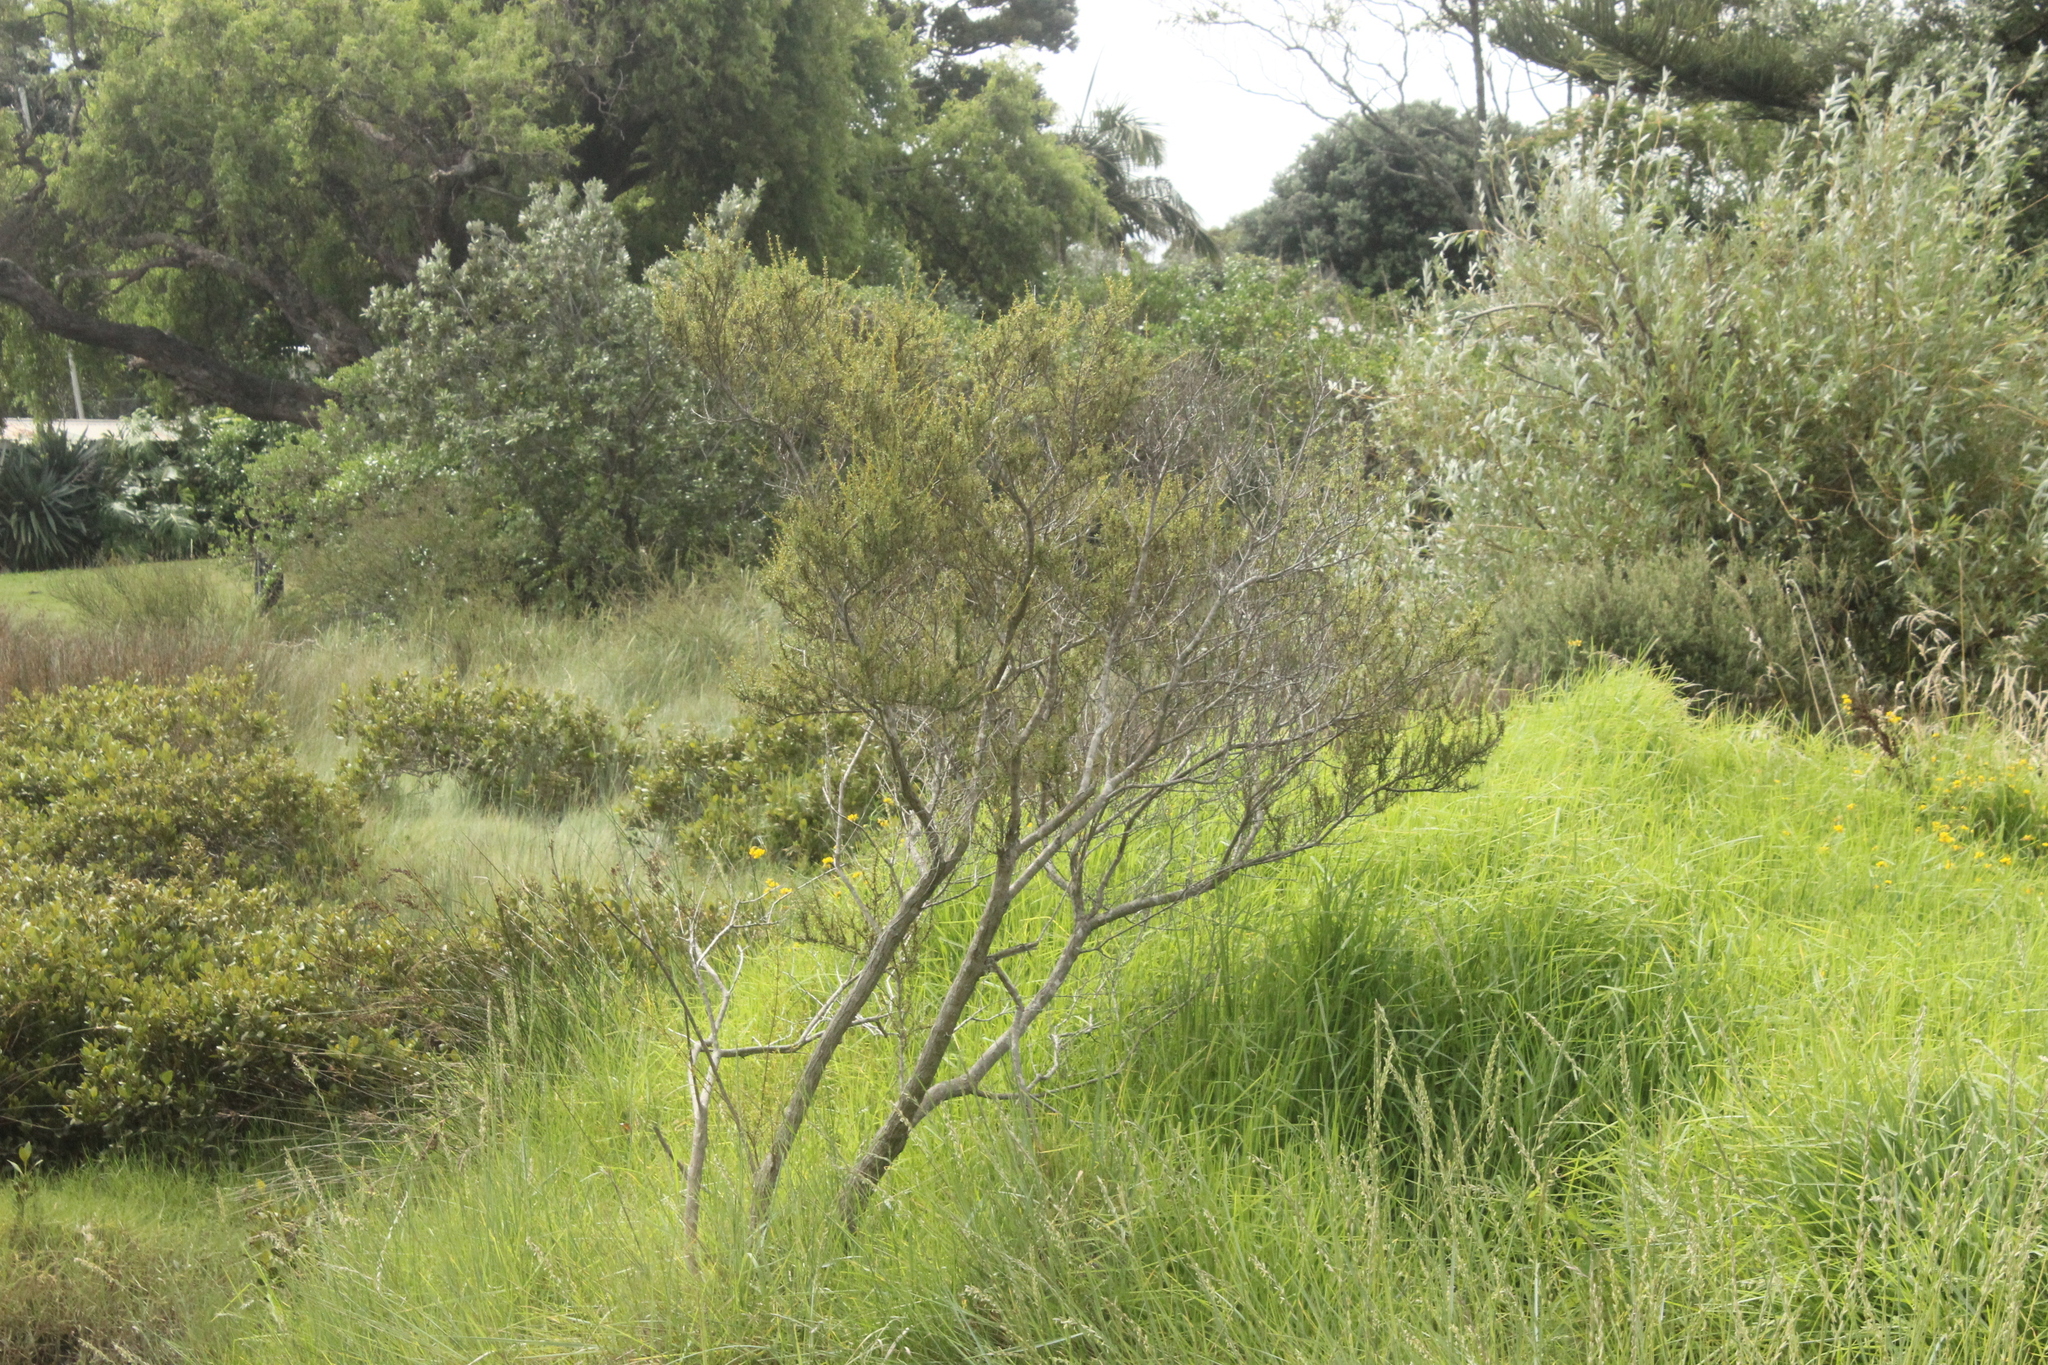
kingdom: Plantae
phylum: Tracheophyta
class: Magnoliopsida
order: Asterales
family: Asteraceae
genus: Olearia
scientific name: Olearia solandri
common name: Coastal daisybush
